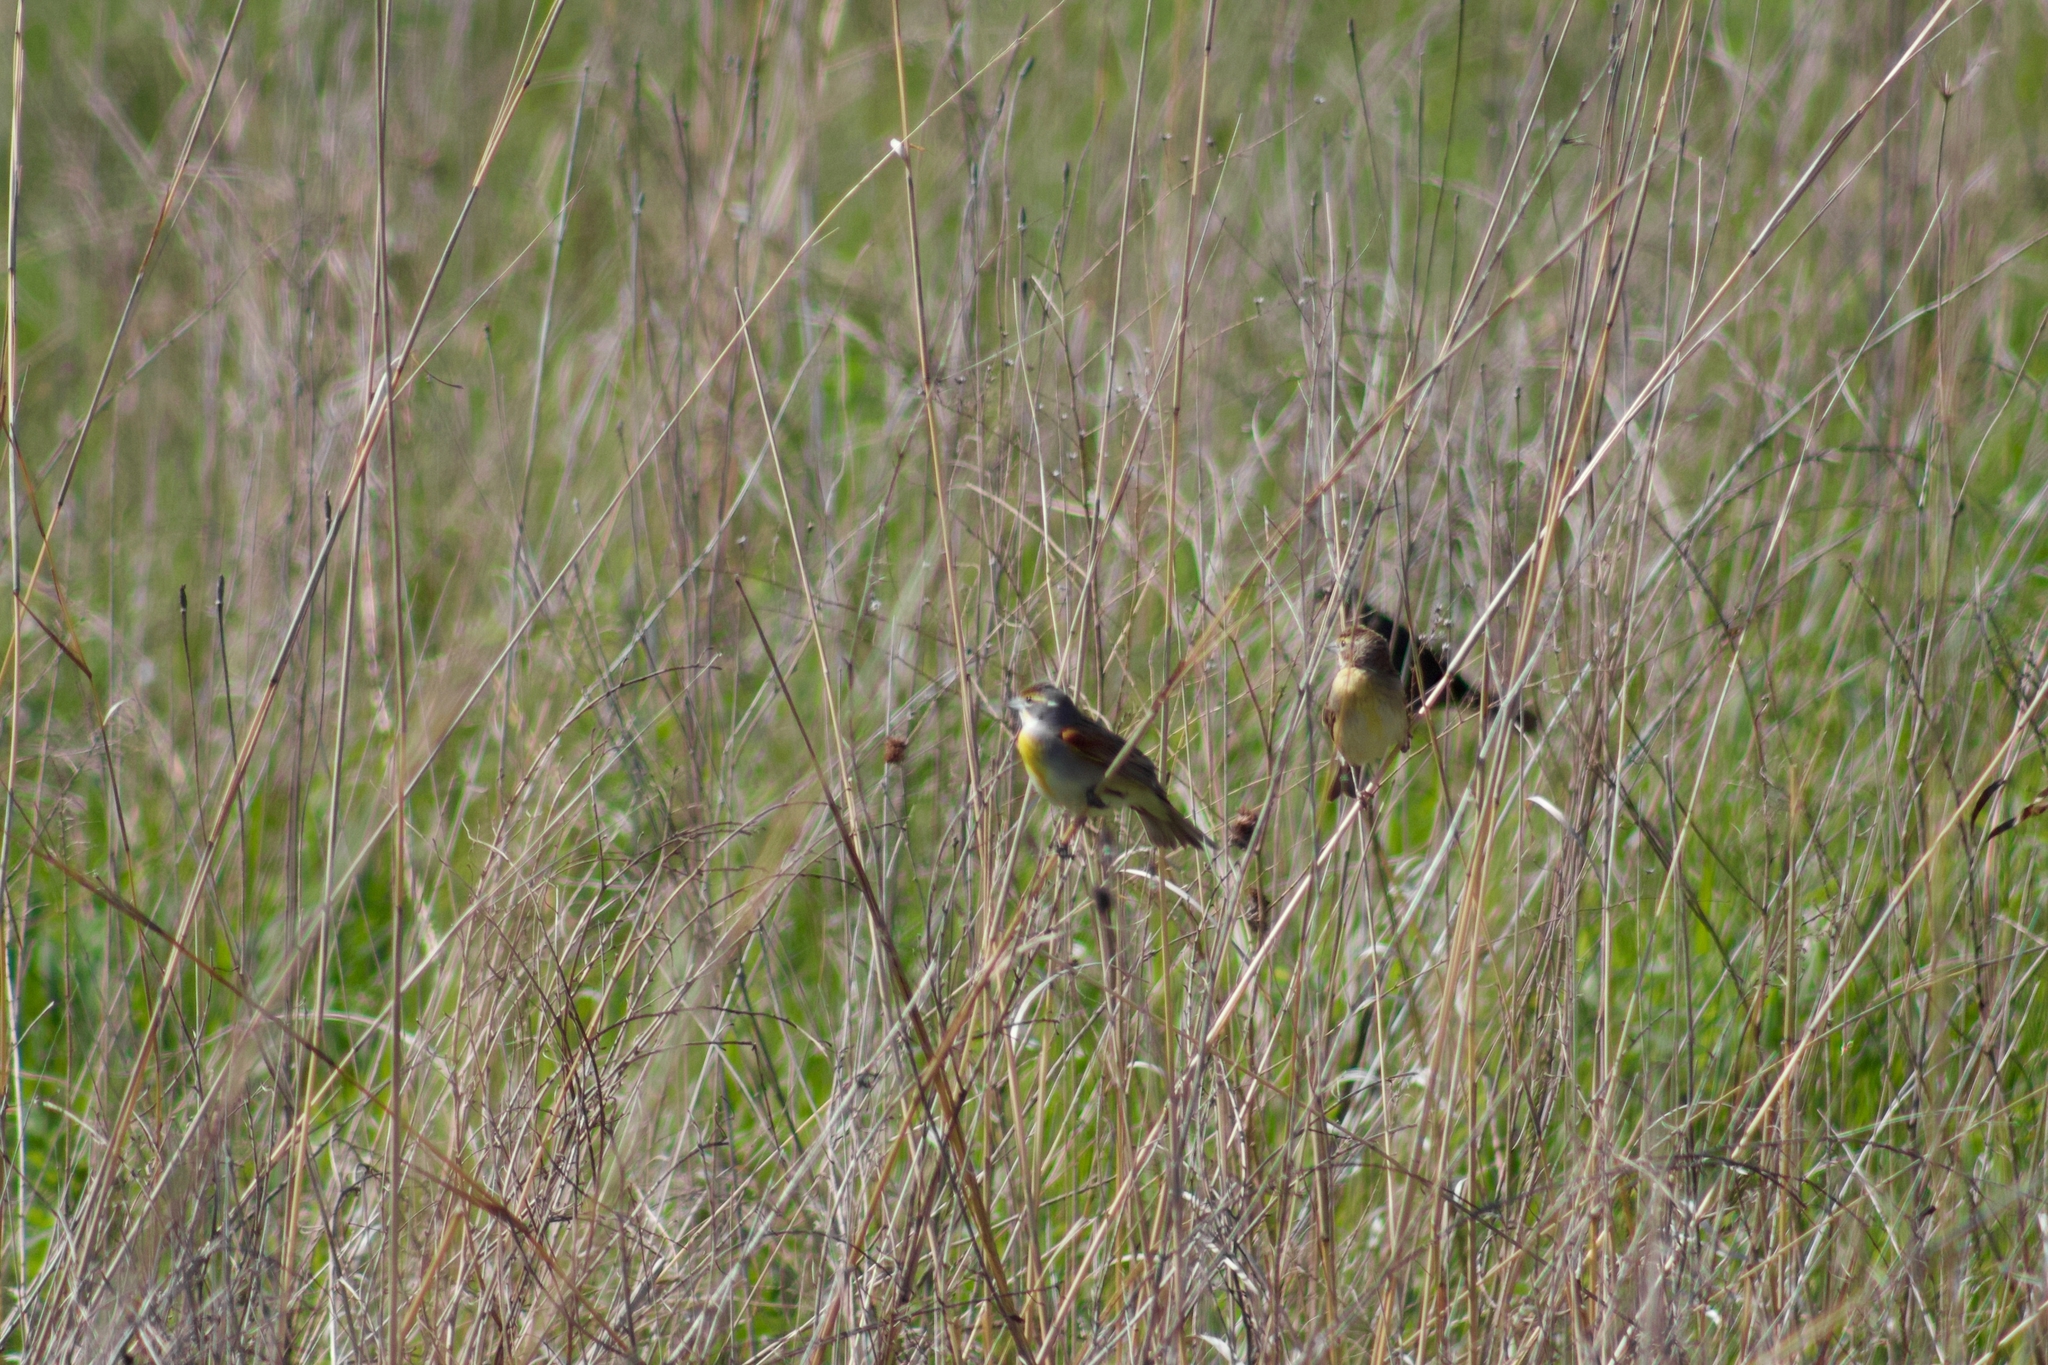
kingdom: Animalia
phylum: Chordata
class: Aves
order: Passeriformes
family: Cardinalidae
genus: Spiza
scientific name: Spiza americana
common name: Dickcissel
